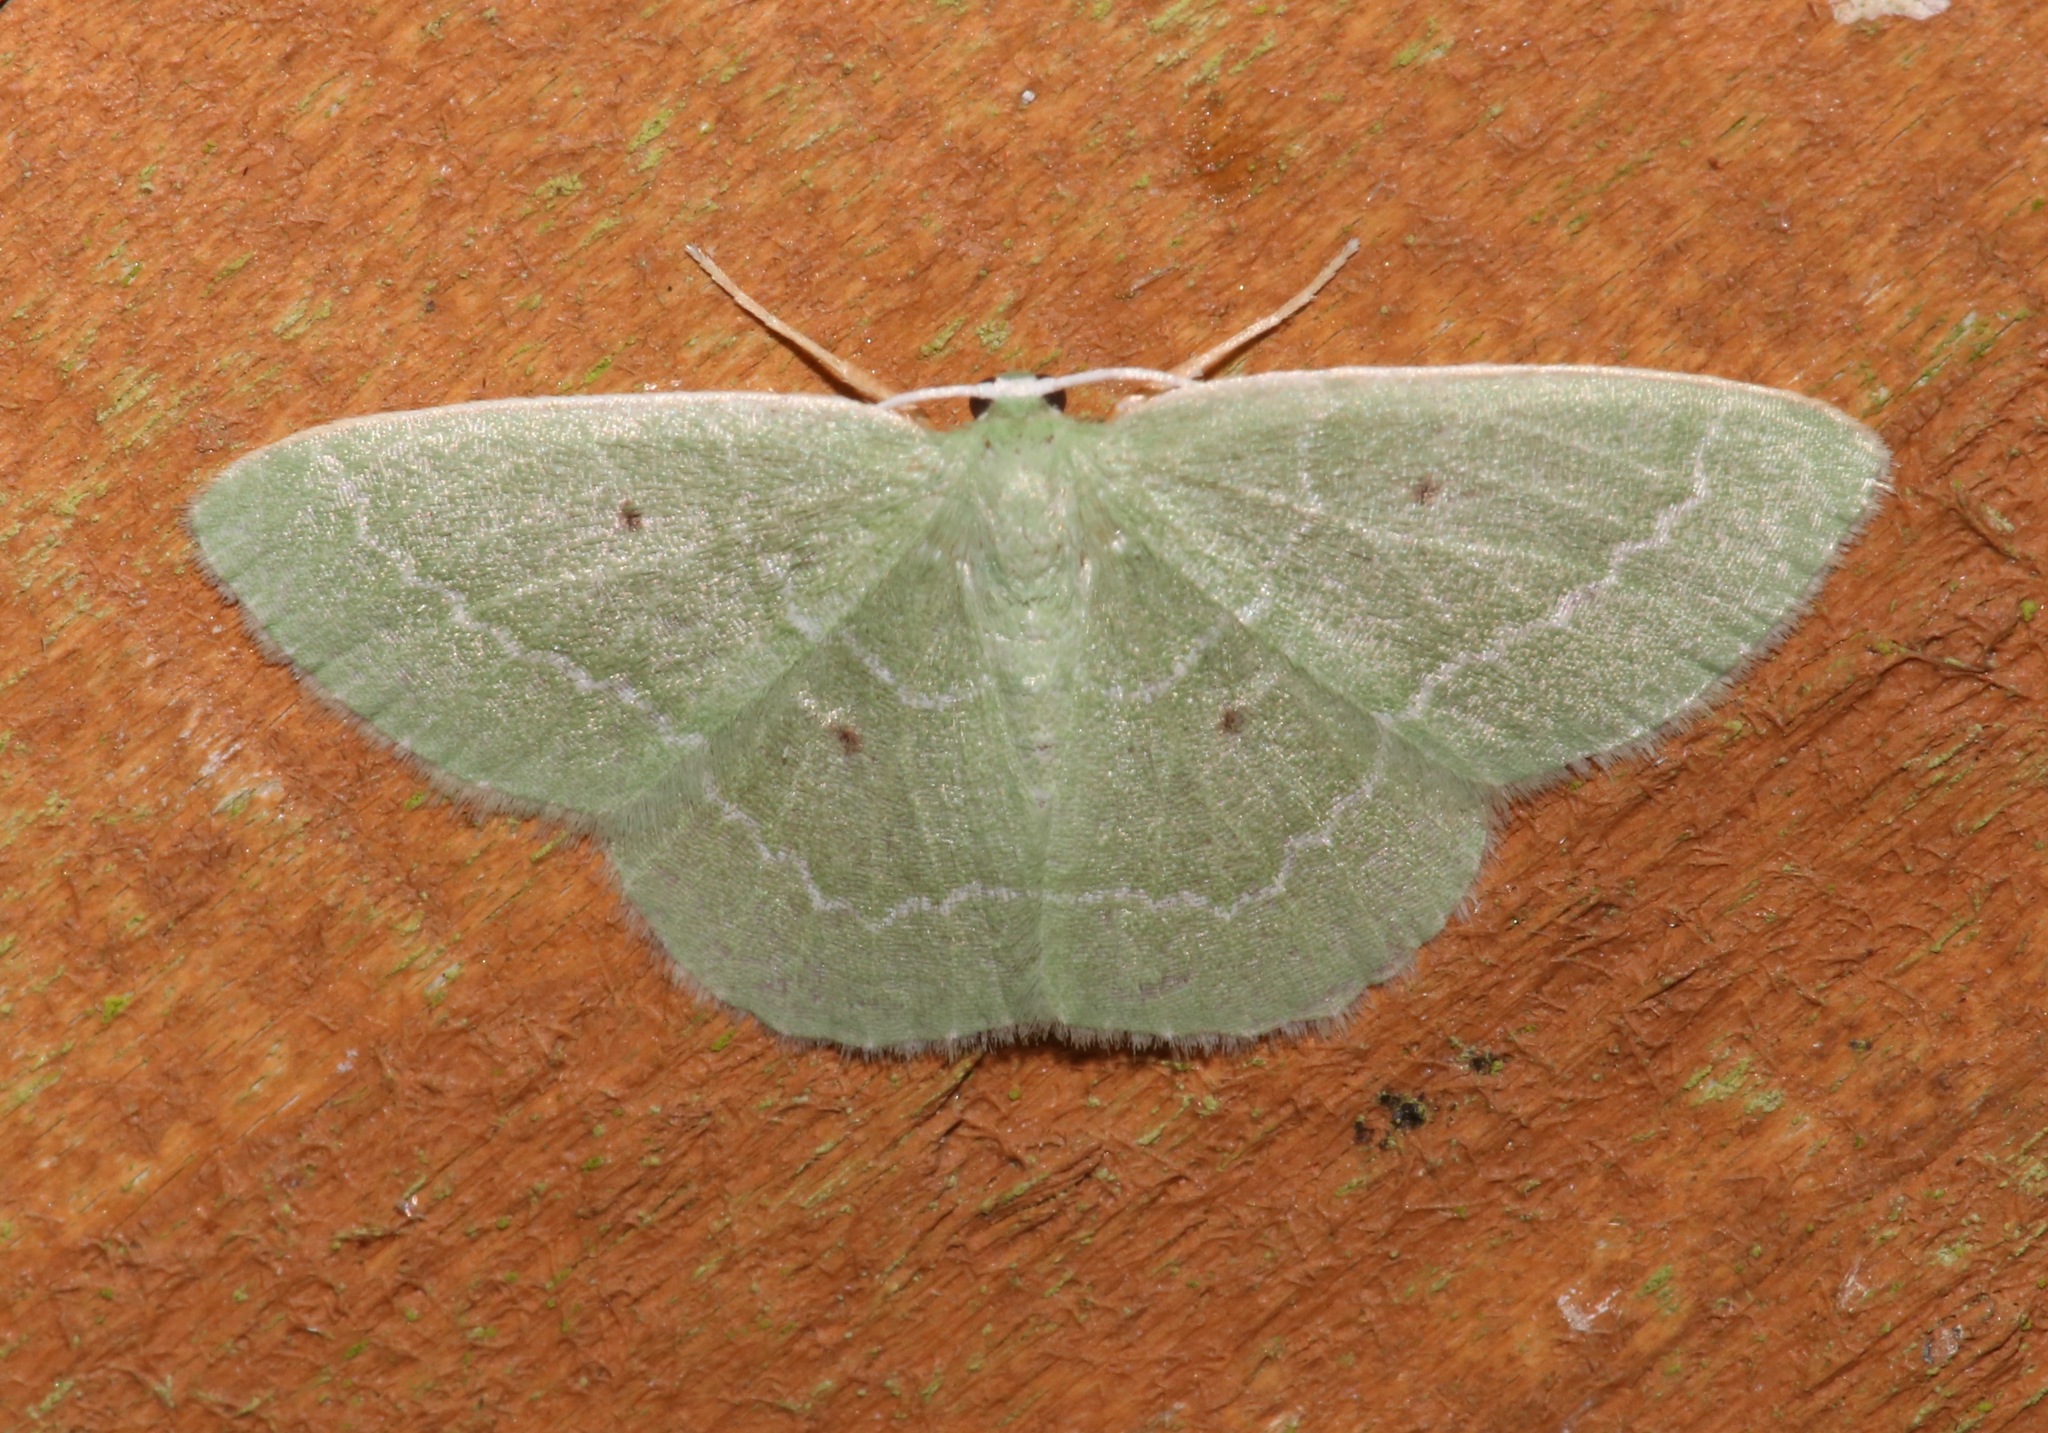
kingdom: Animalia
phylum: Arthropoda
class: Insecta
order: Lepidoptera
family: Geometridae
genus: Nemoria
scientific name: Nemoria elfa
